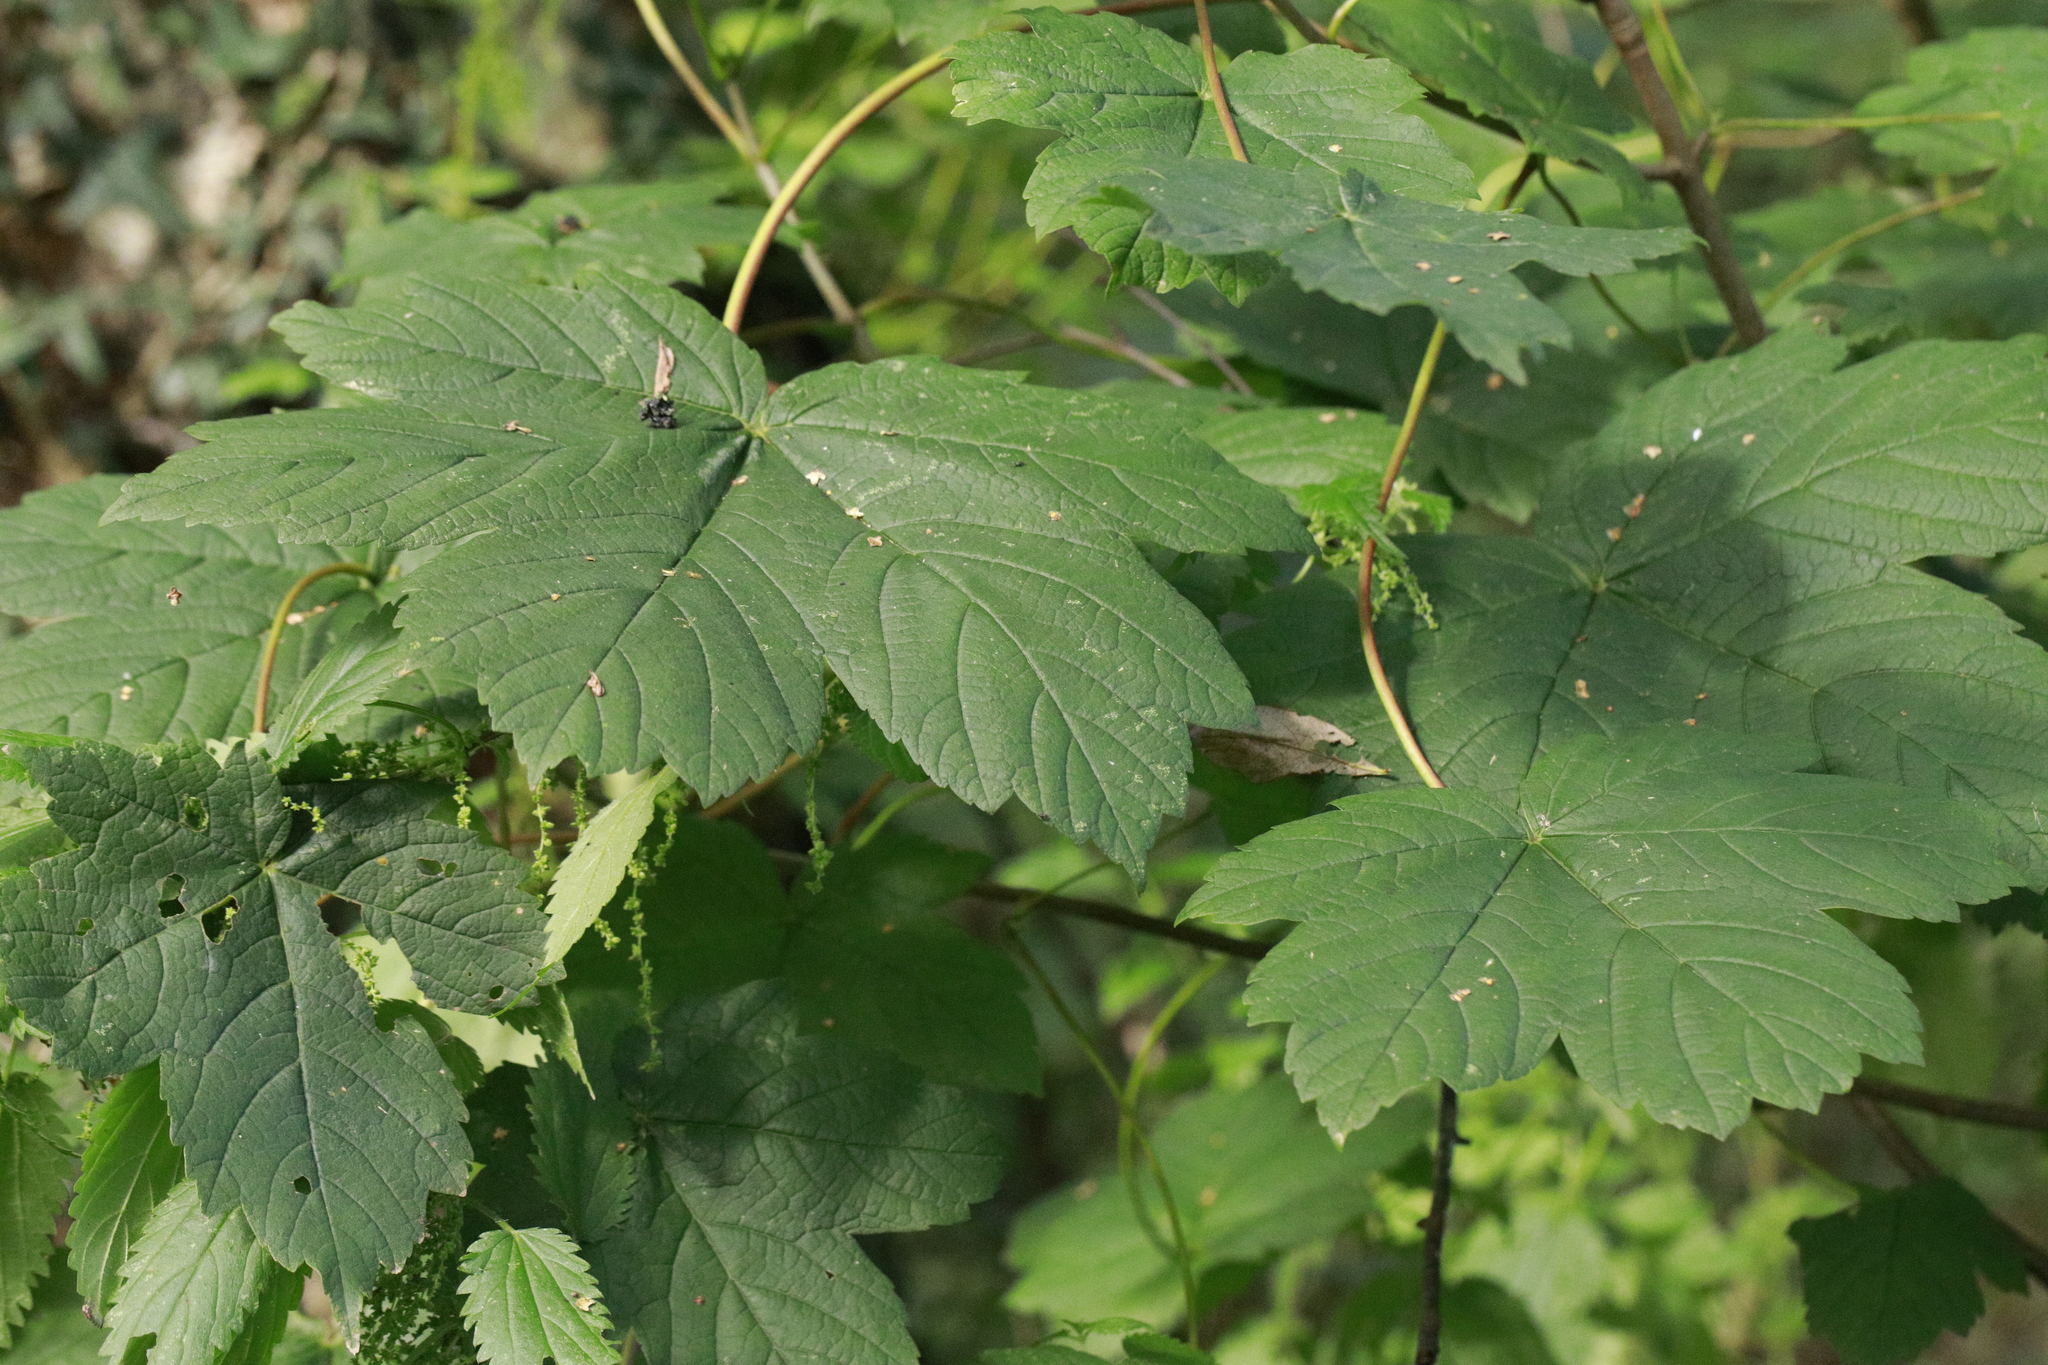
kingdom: Plantae
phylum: Tracheophyta
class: Magnoliopsida
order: Sapindales
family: Sapindaceae
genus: Acer
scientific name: Acer pseudoplatanus
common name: Sycamore
